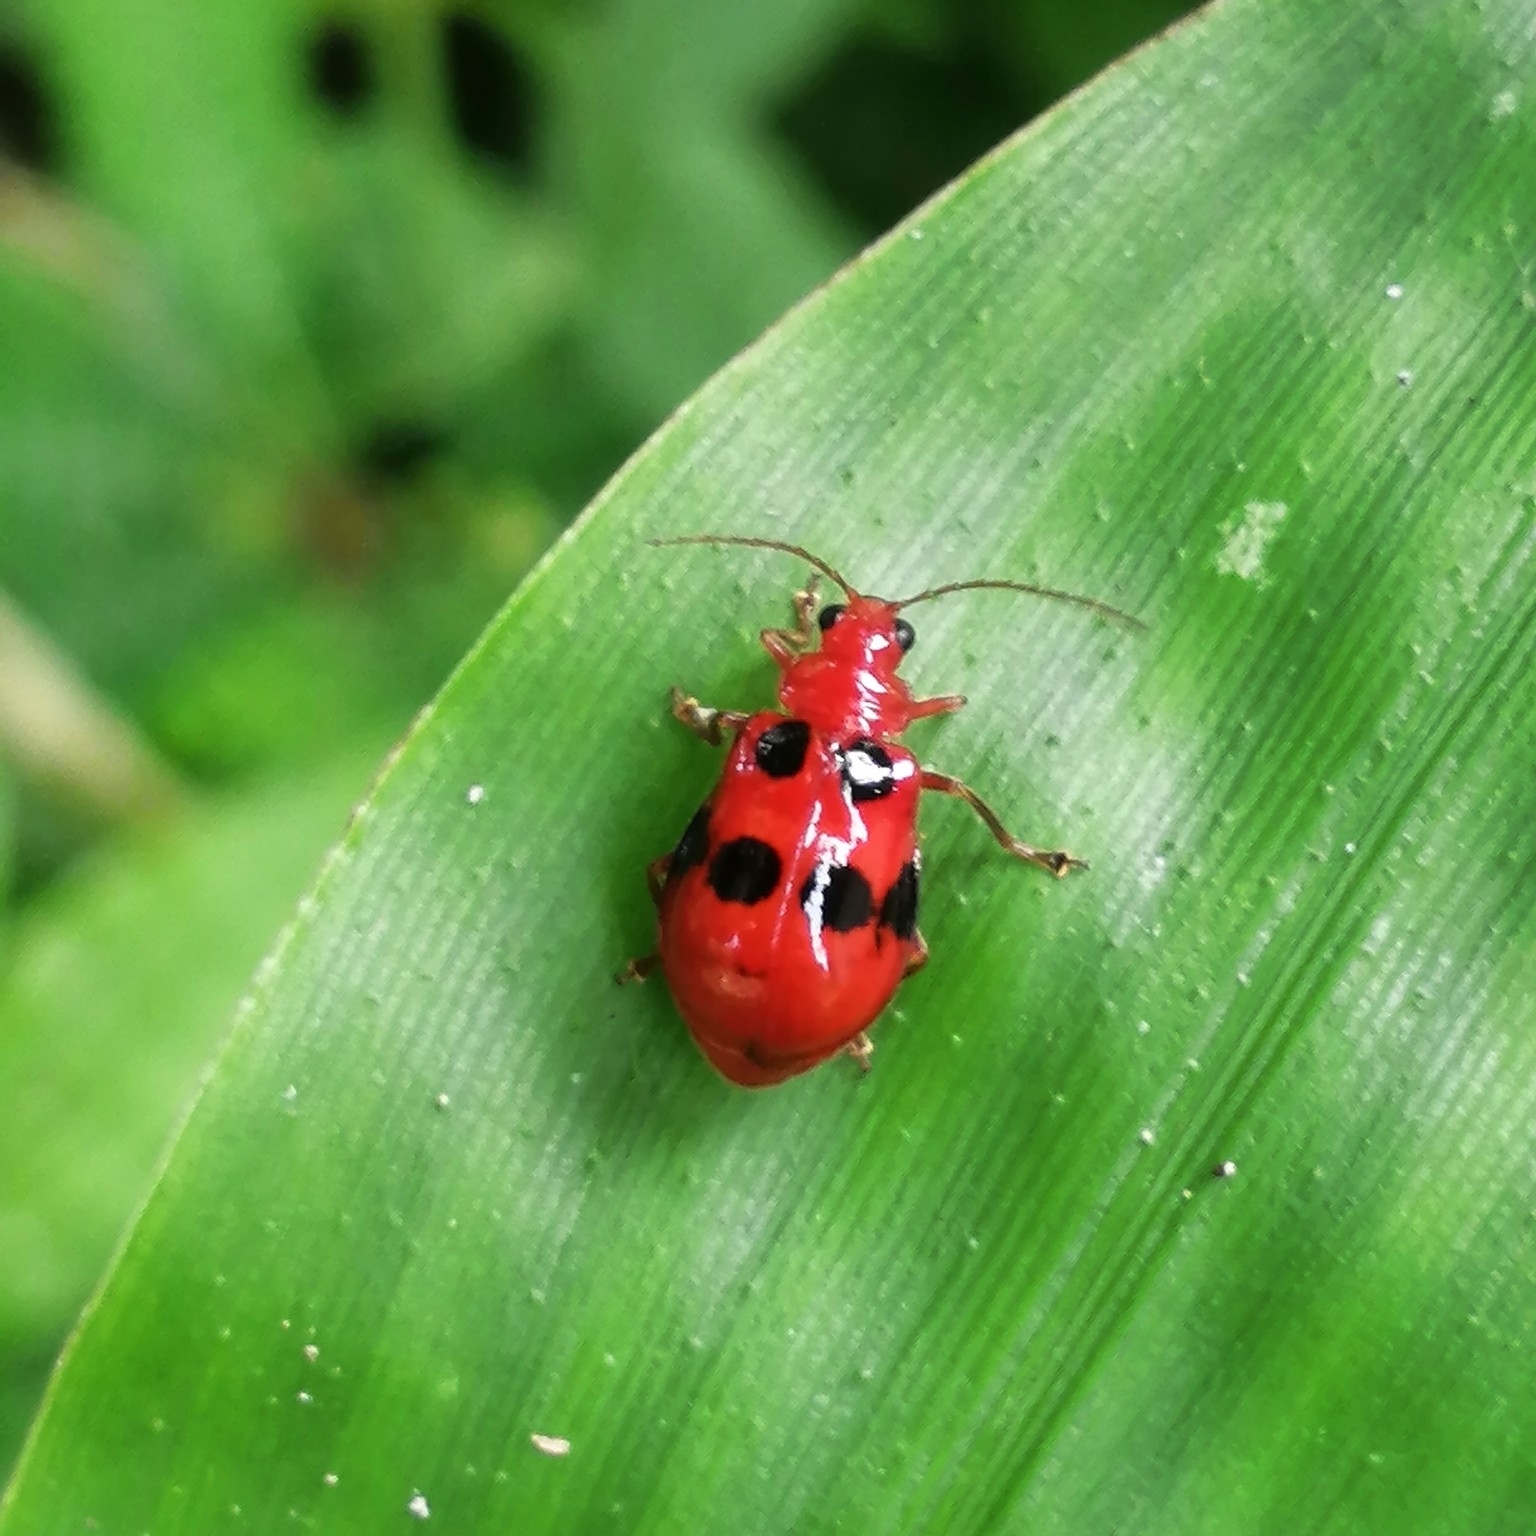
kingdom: Animalia
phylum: Arthropoda
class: Insecta
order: Coleoptera
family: Chrysomelidae
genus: Aulacophora
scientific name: Aulacophora
